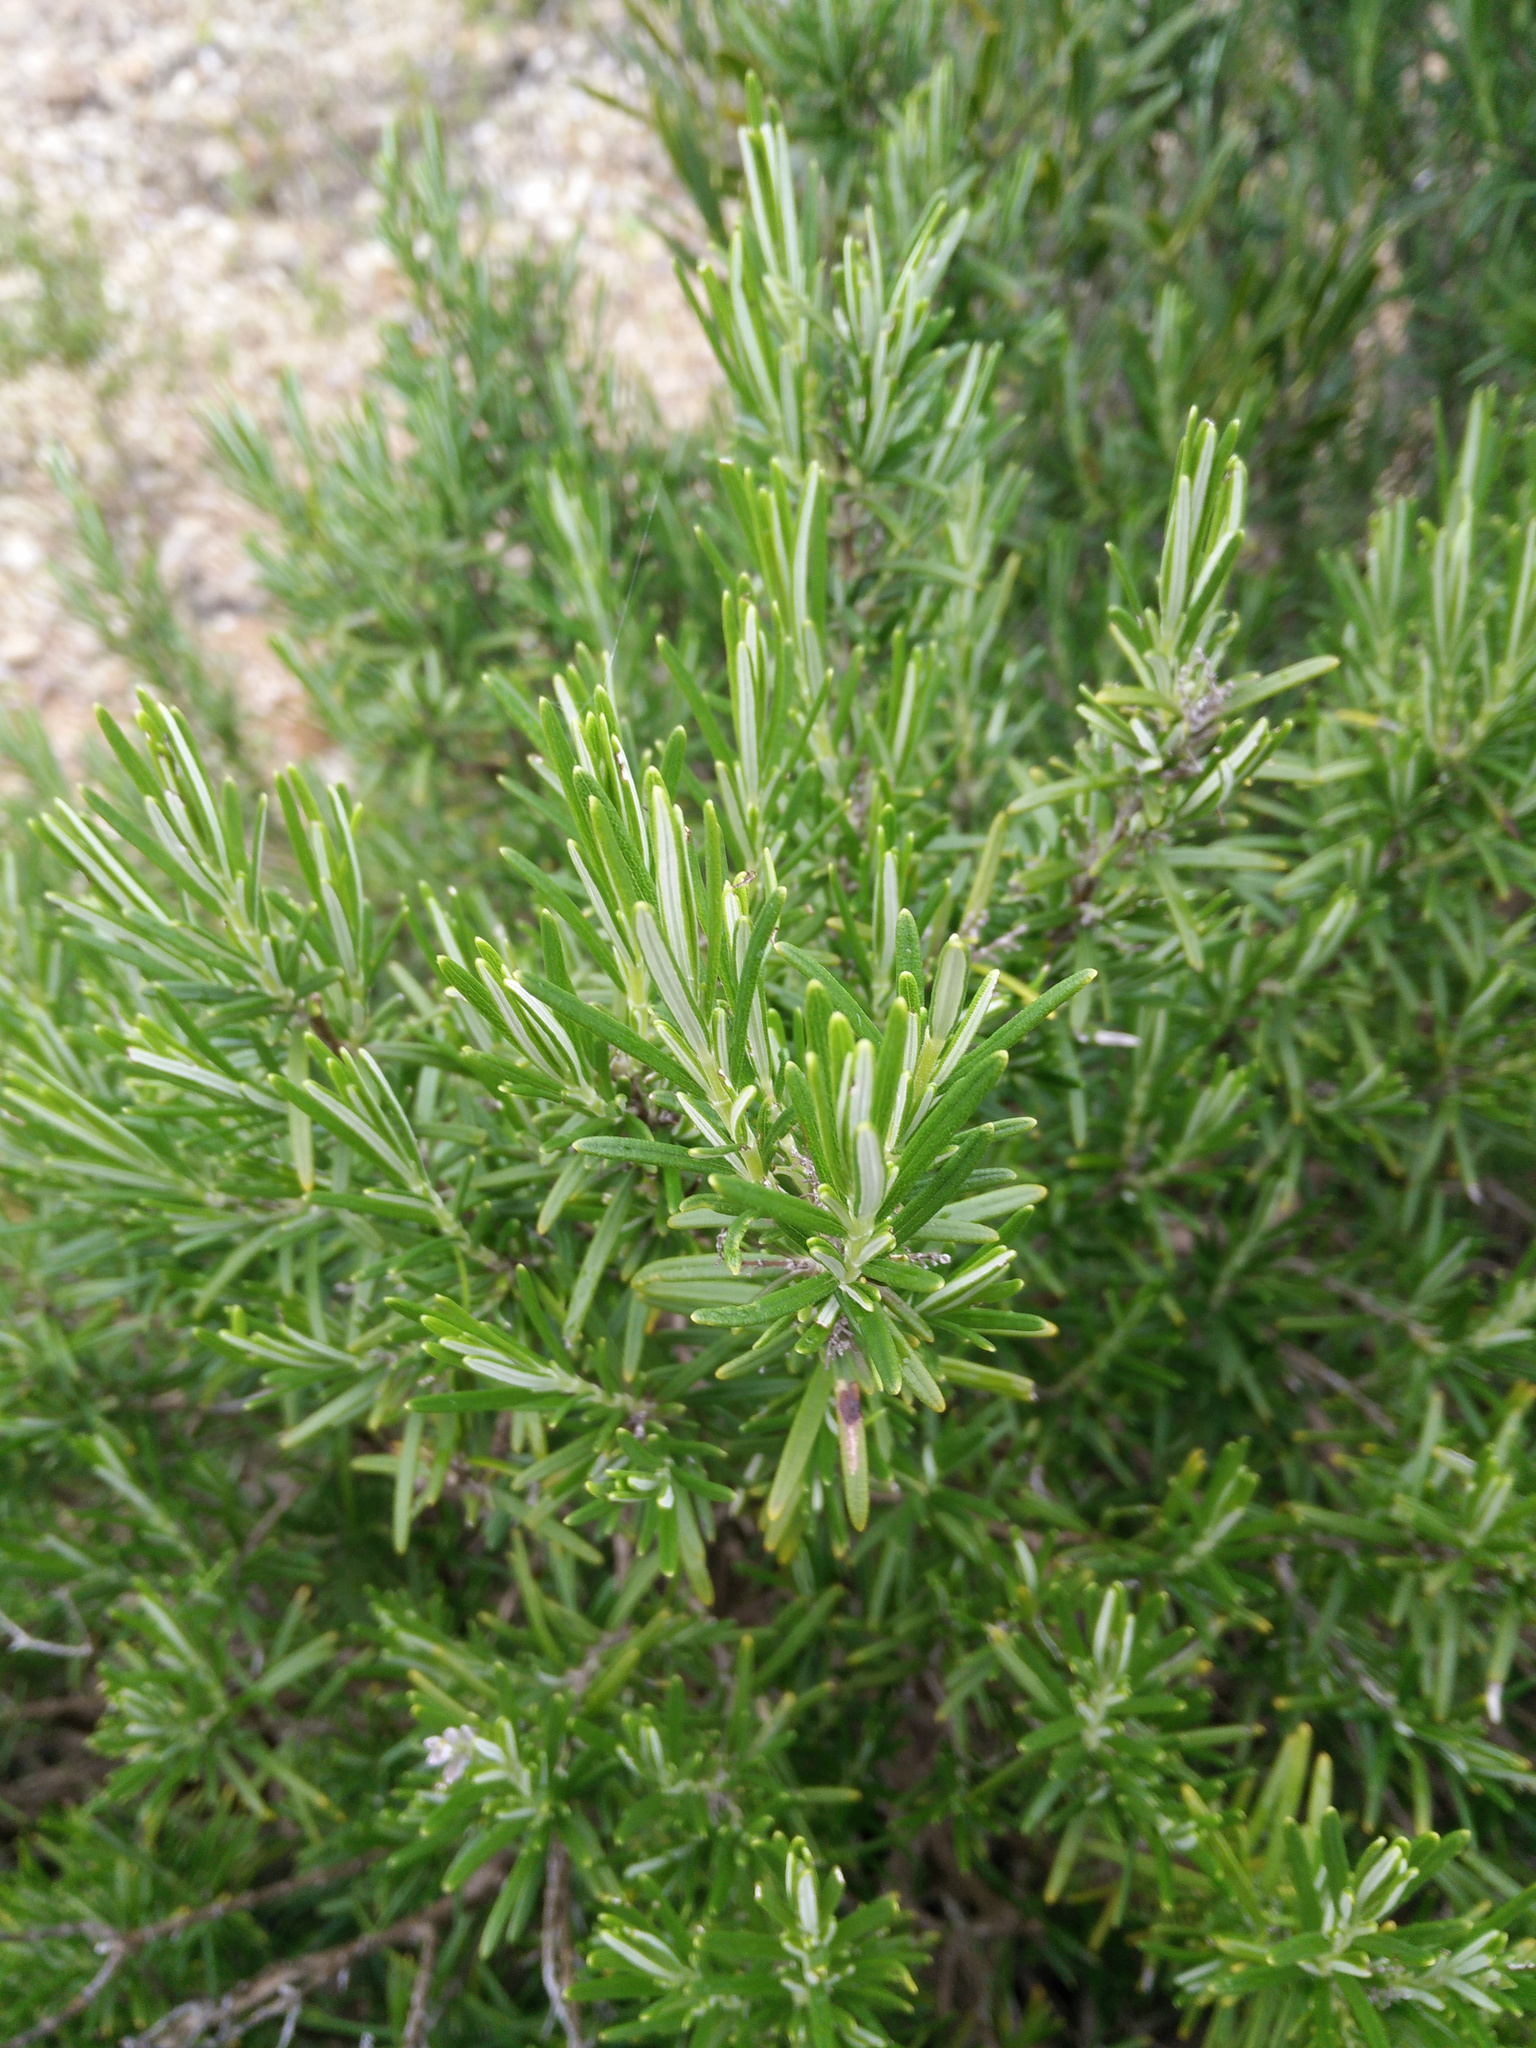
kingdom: Plantae
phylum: Tracheophyta
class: Magnoliopsida
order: Lamiales
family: Lamiaceae
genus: Salvia
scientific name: Salvia rosmarinus
